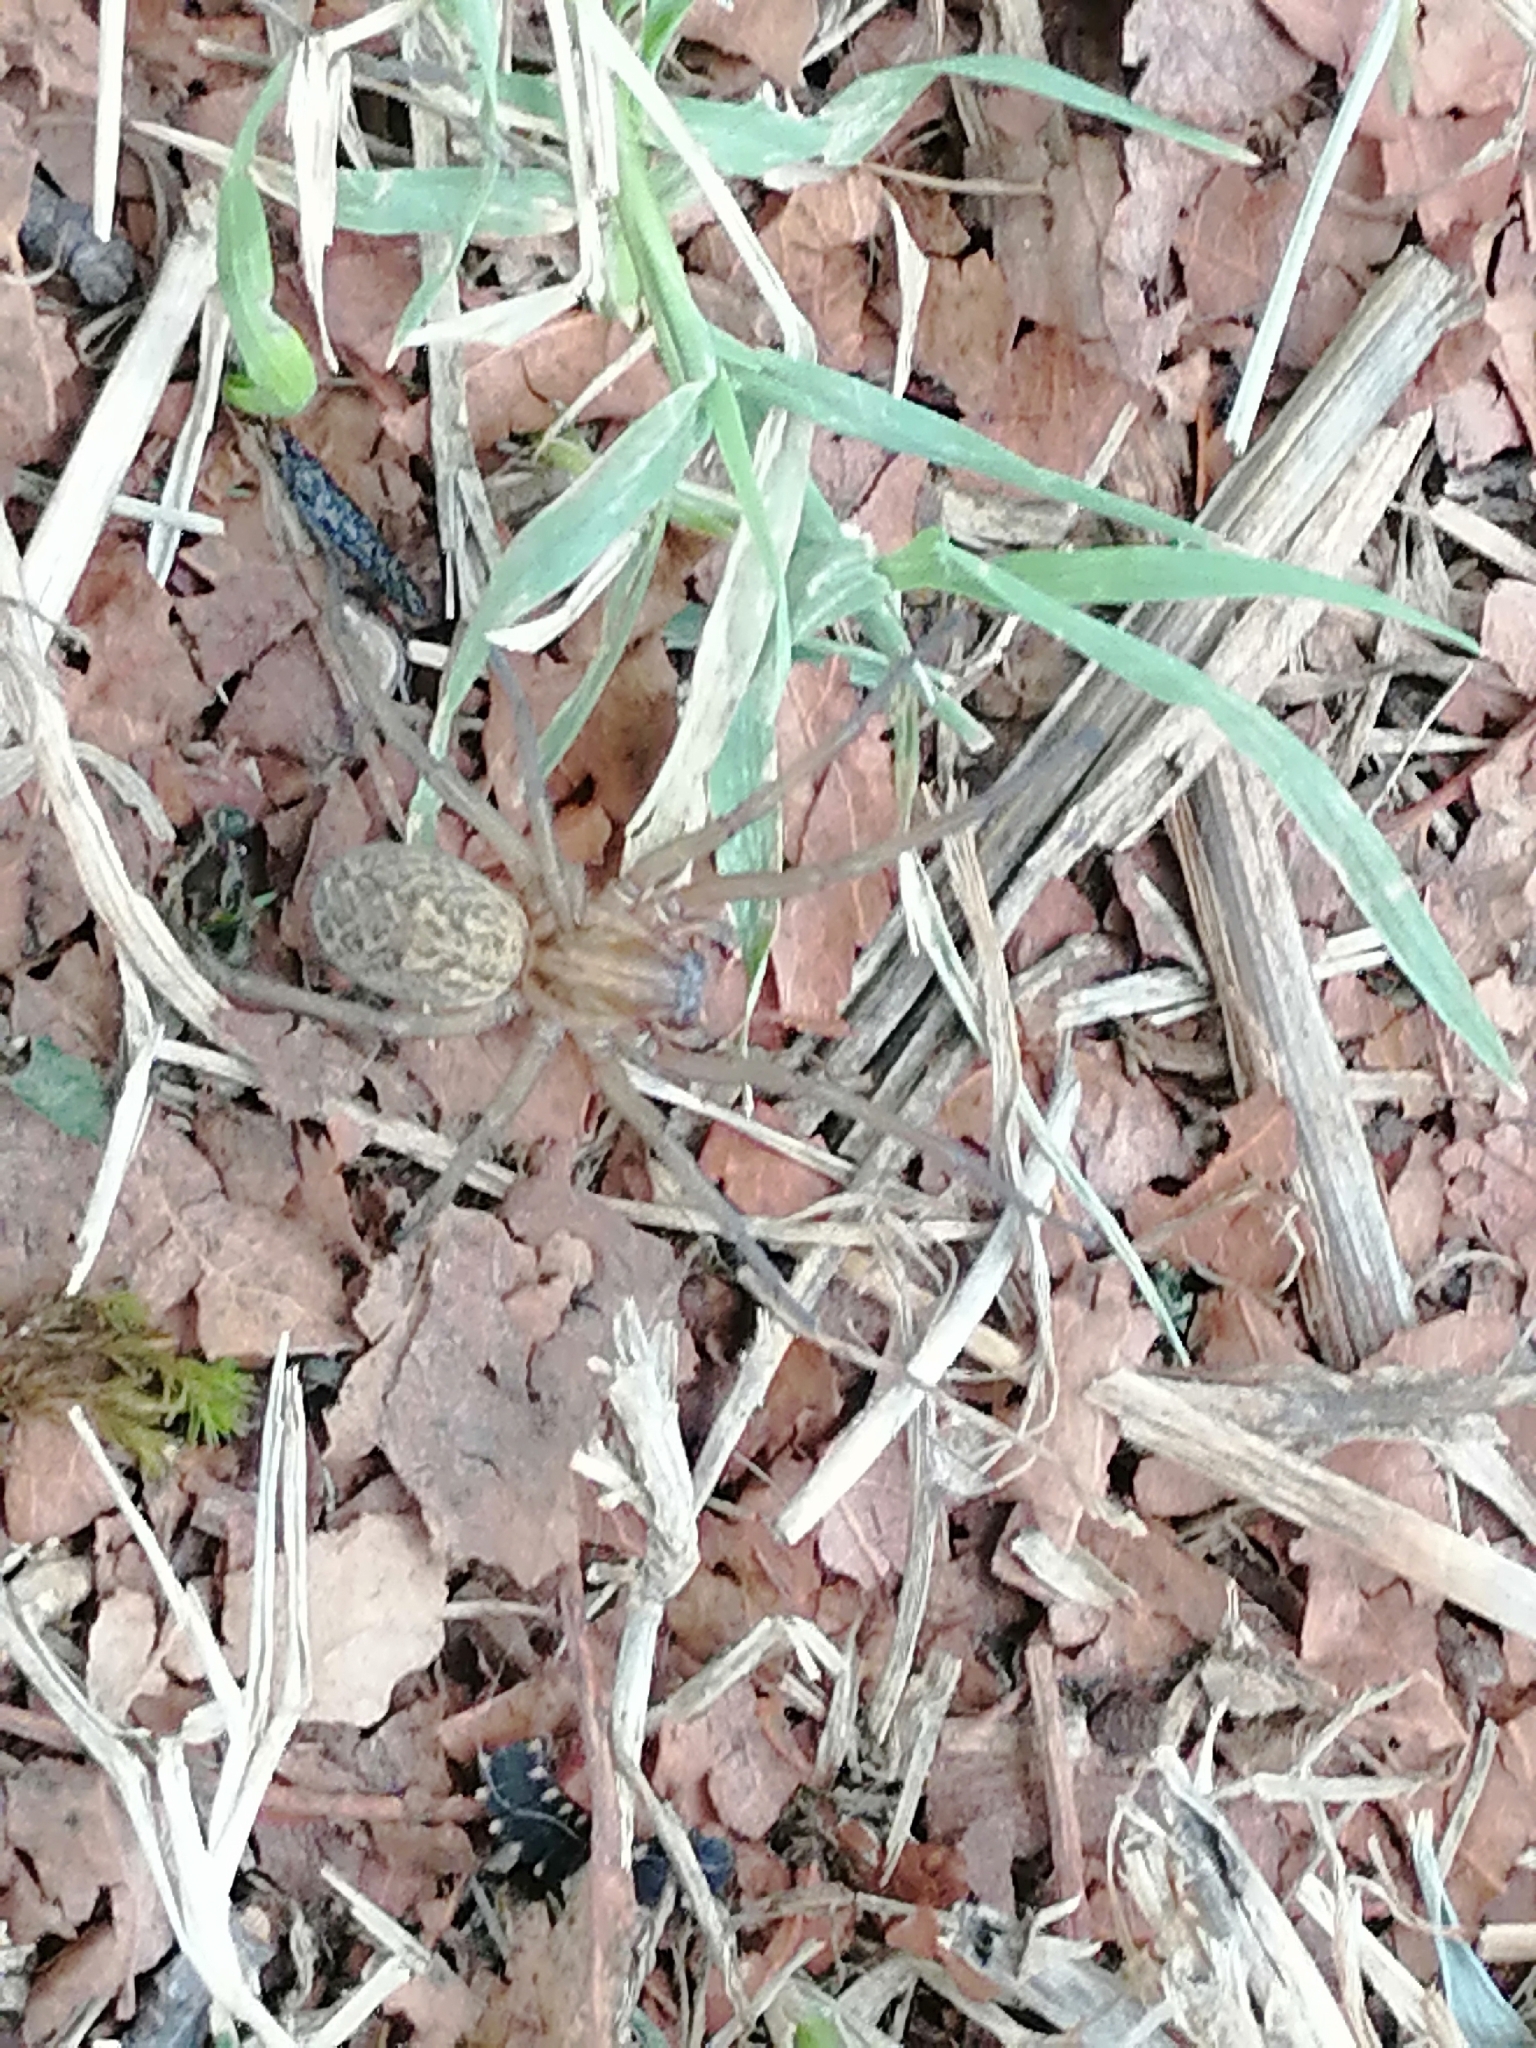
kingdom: Animalia
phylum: Arthropoda
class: Arachnida
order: Araneae
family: Agelenidae
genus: Eratigena
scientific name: Eratigena
